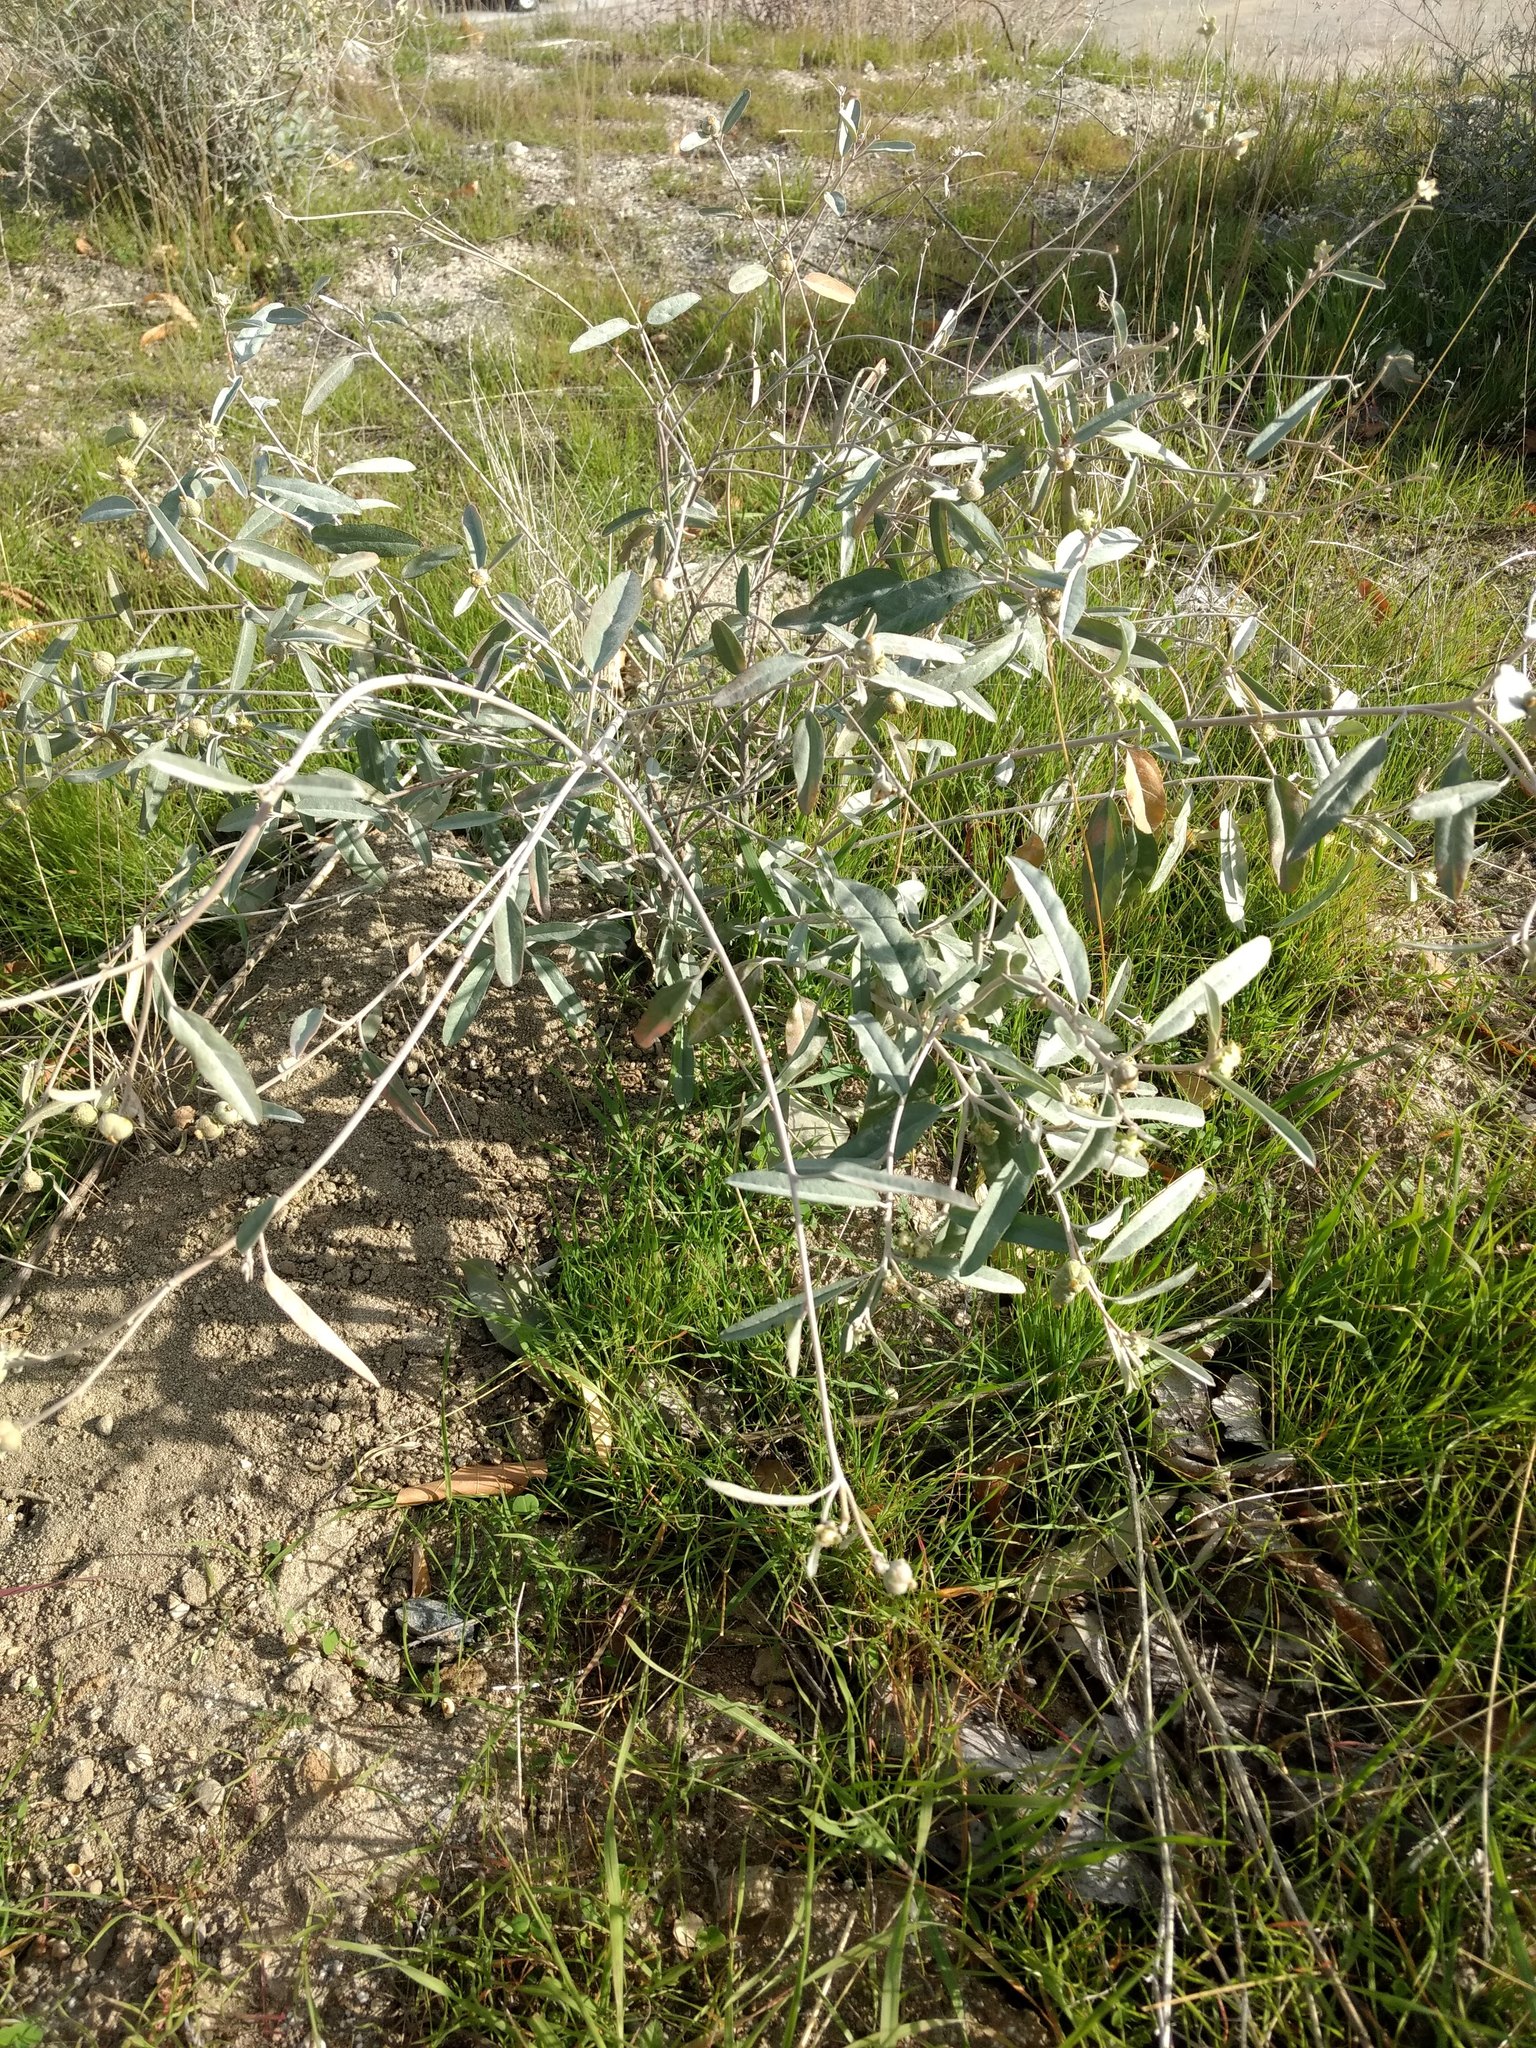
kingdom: Plantae
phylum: Tracheophyta
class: Magnoliopsida
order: Malpighiales
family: Euphorbiaceae
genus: Croton
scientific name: Croton californicus
